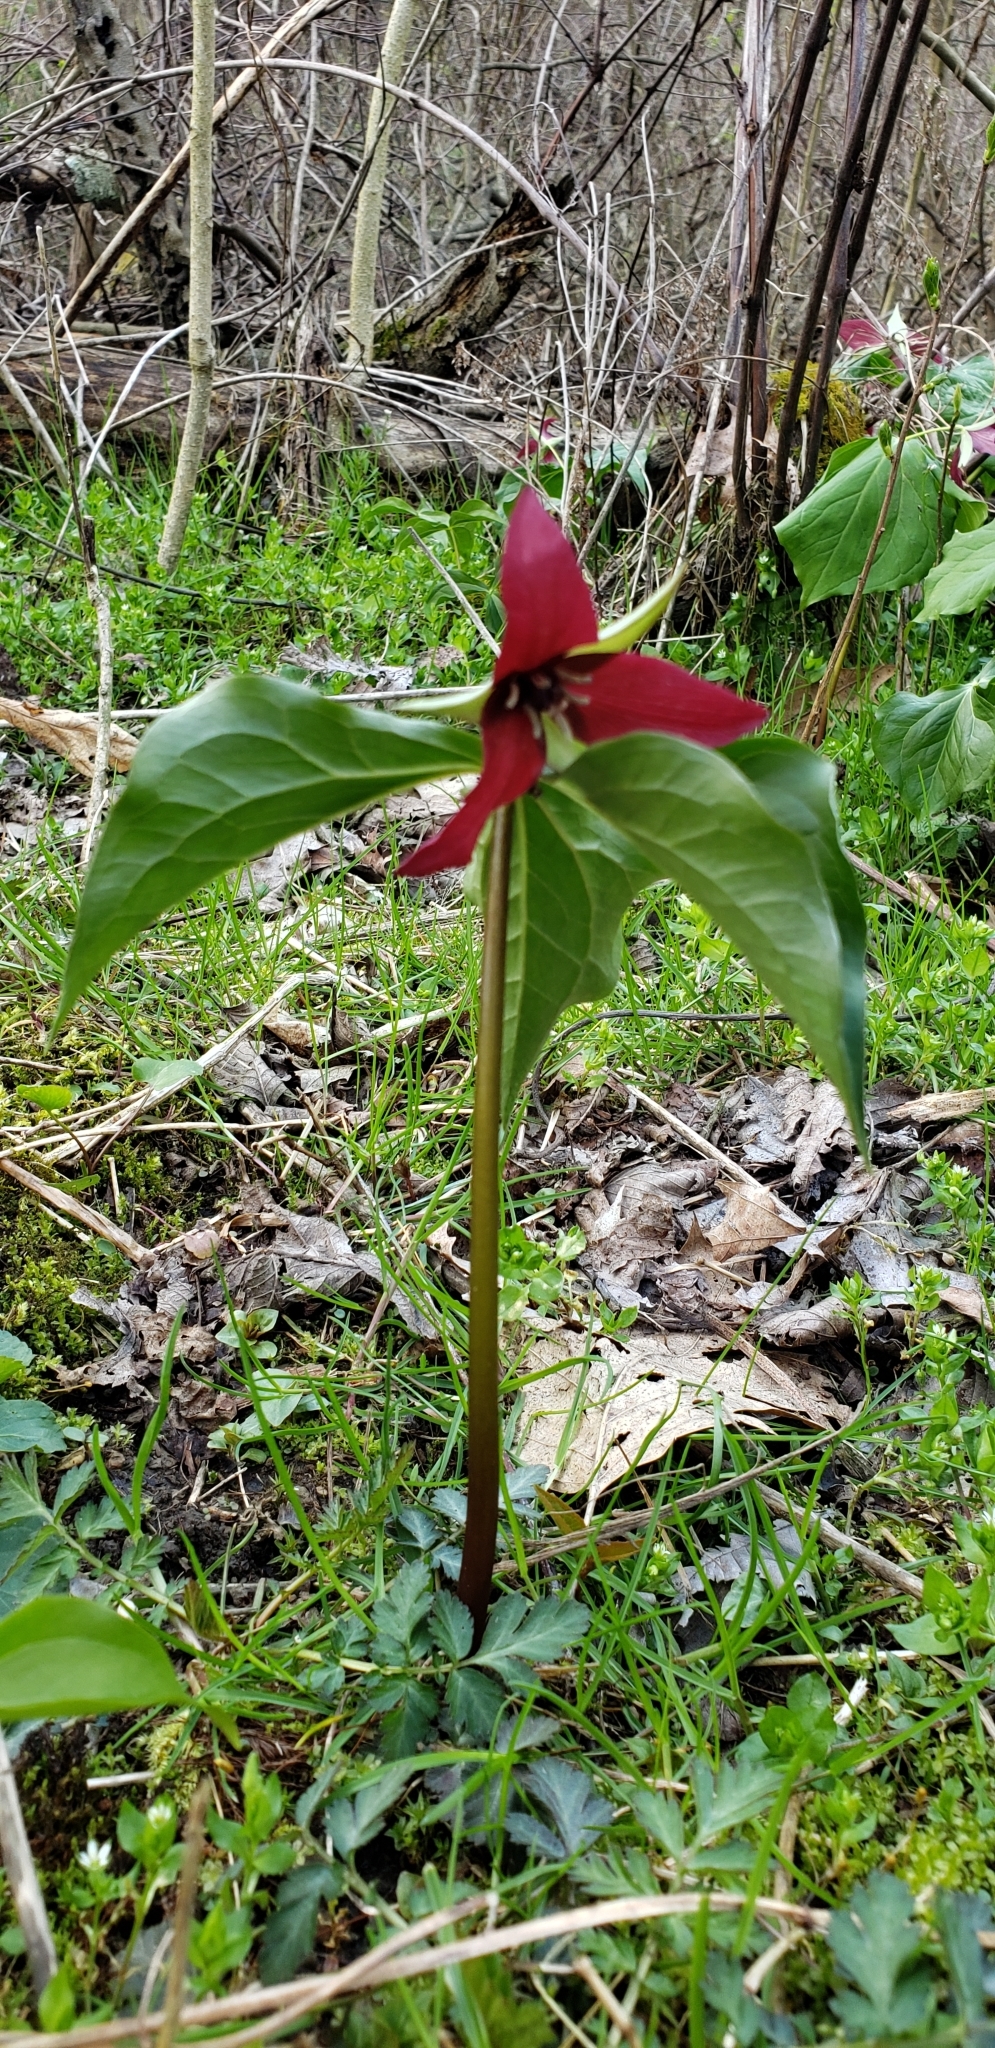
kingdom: Plantae
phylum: Tracheophyta
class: Liliopsida
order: Liliales
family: Melanthiaceae
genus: Trillium
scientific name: Trillium erectum
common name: Purple trillium
